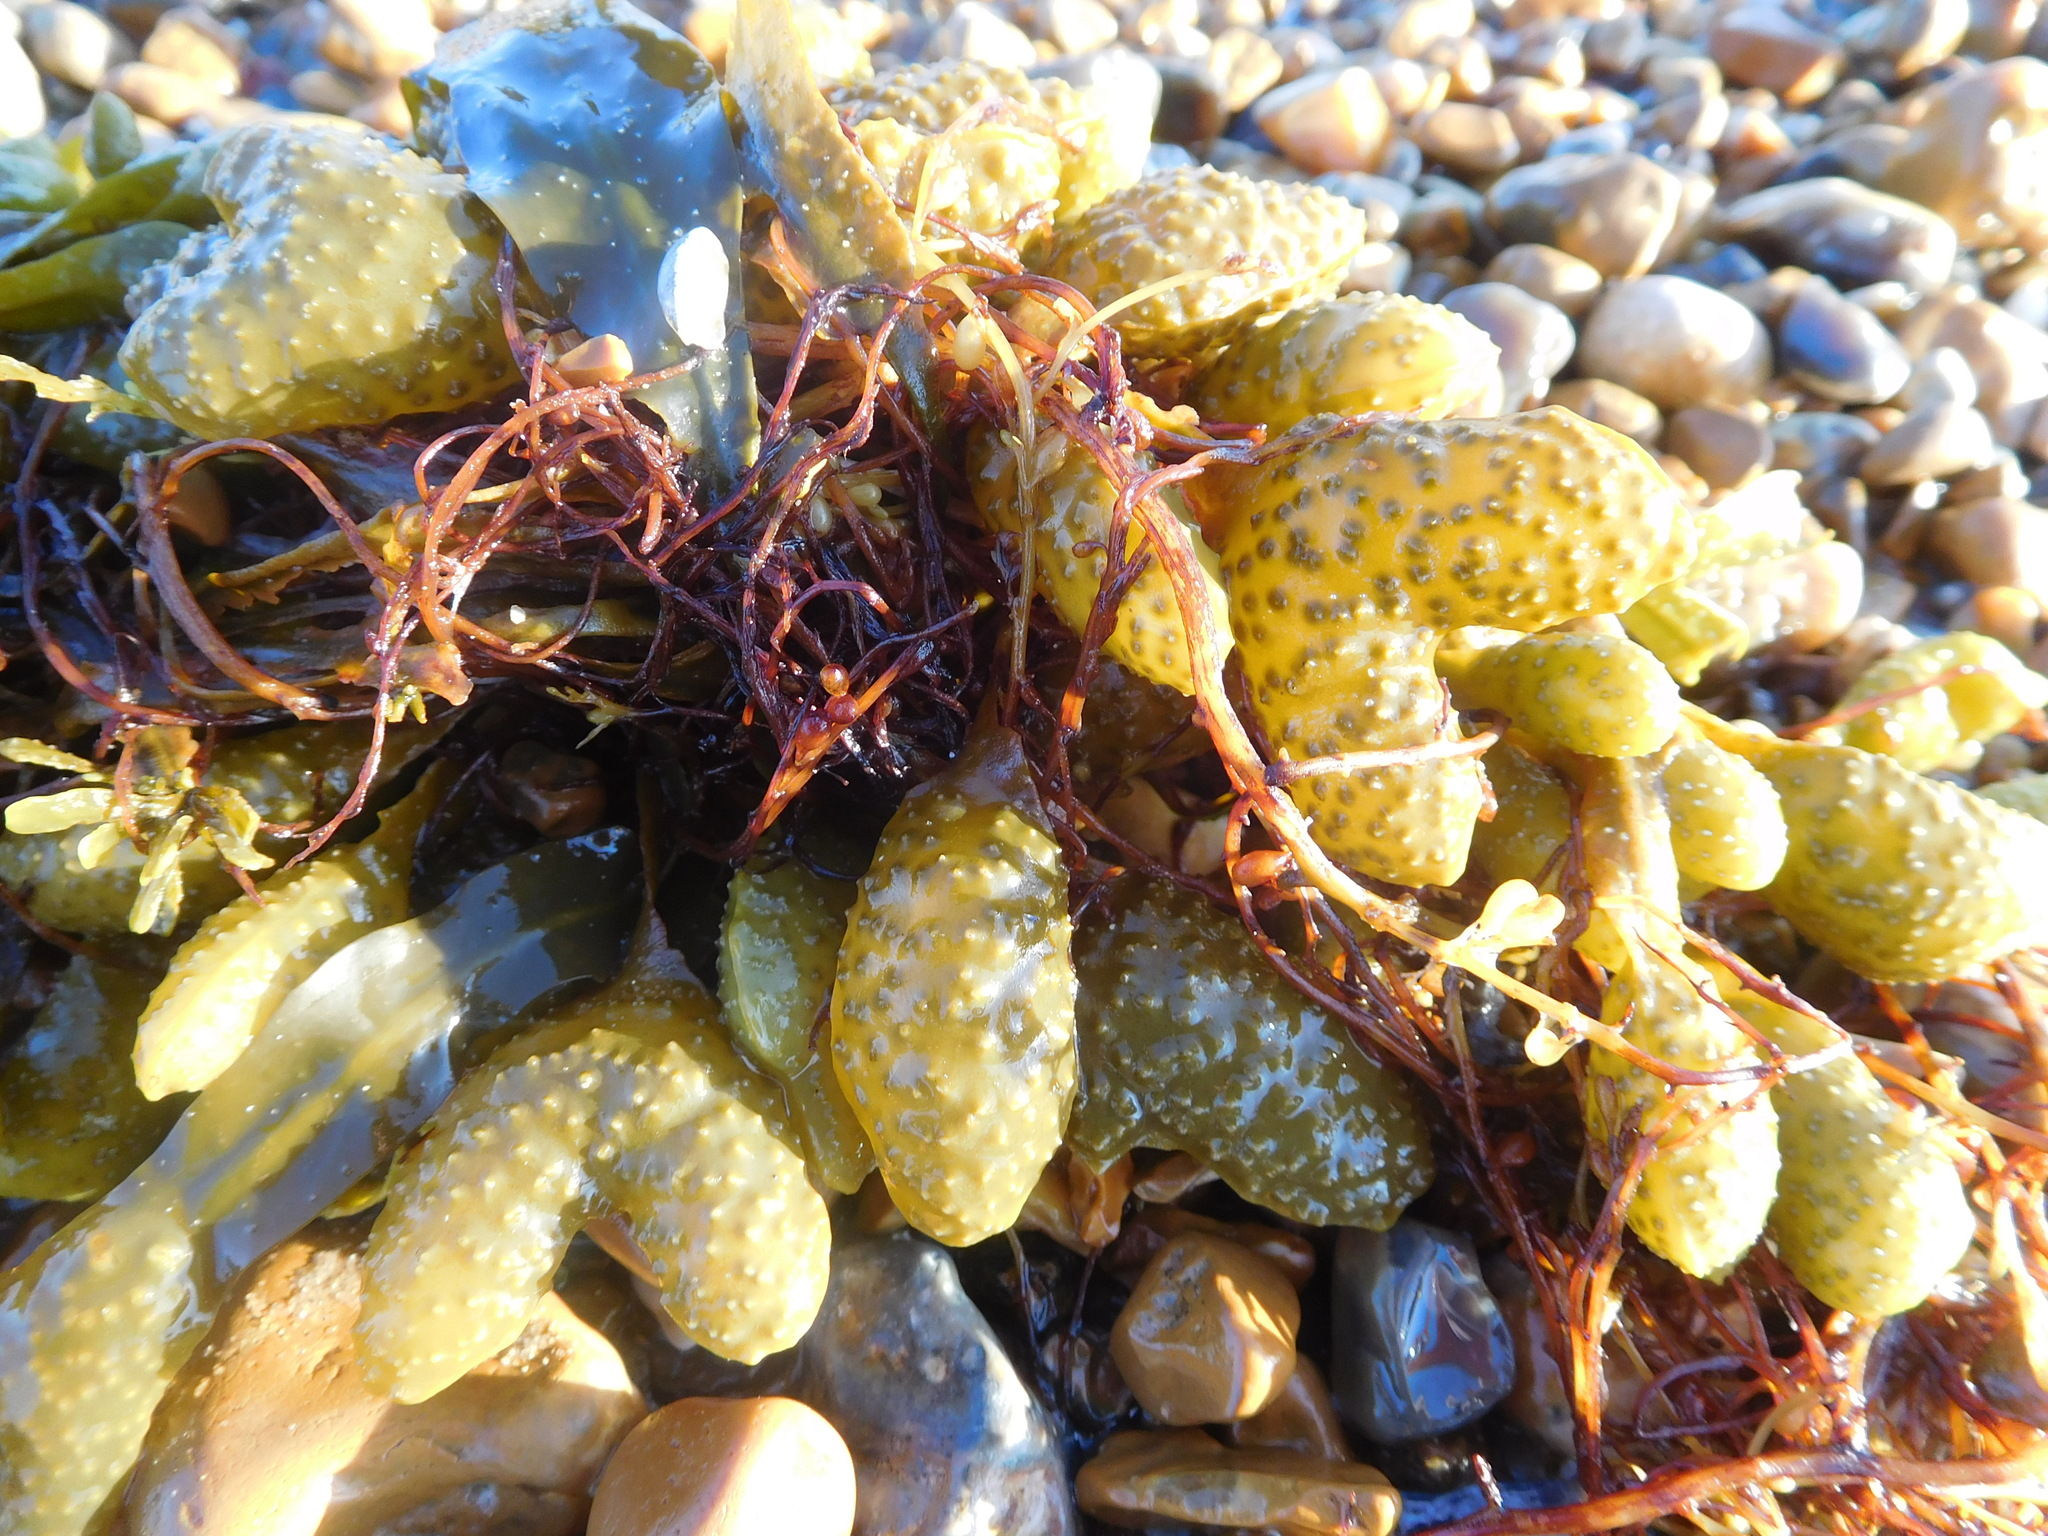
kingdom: Chromista
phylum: Ochrophyta
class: Phaeophyceae
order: Fucales
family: Fucaceae
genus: Fucus
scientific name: Fucus spiralis
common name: Spiral wrack
